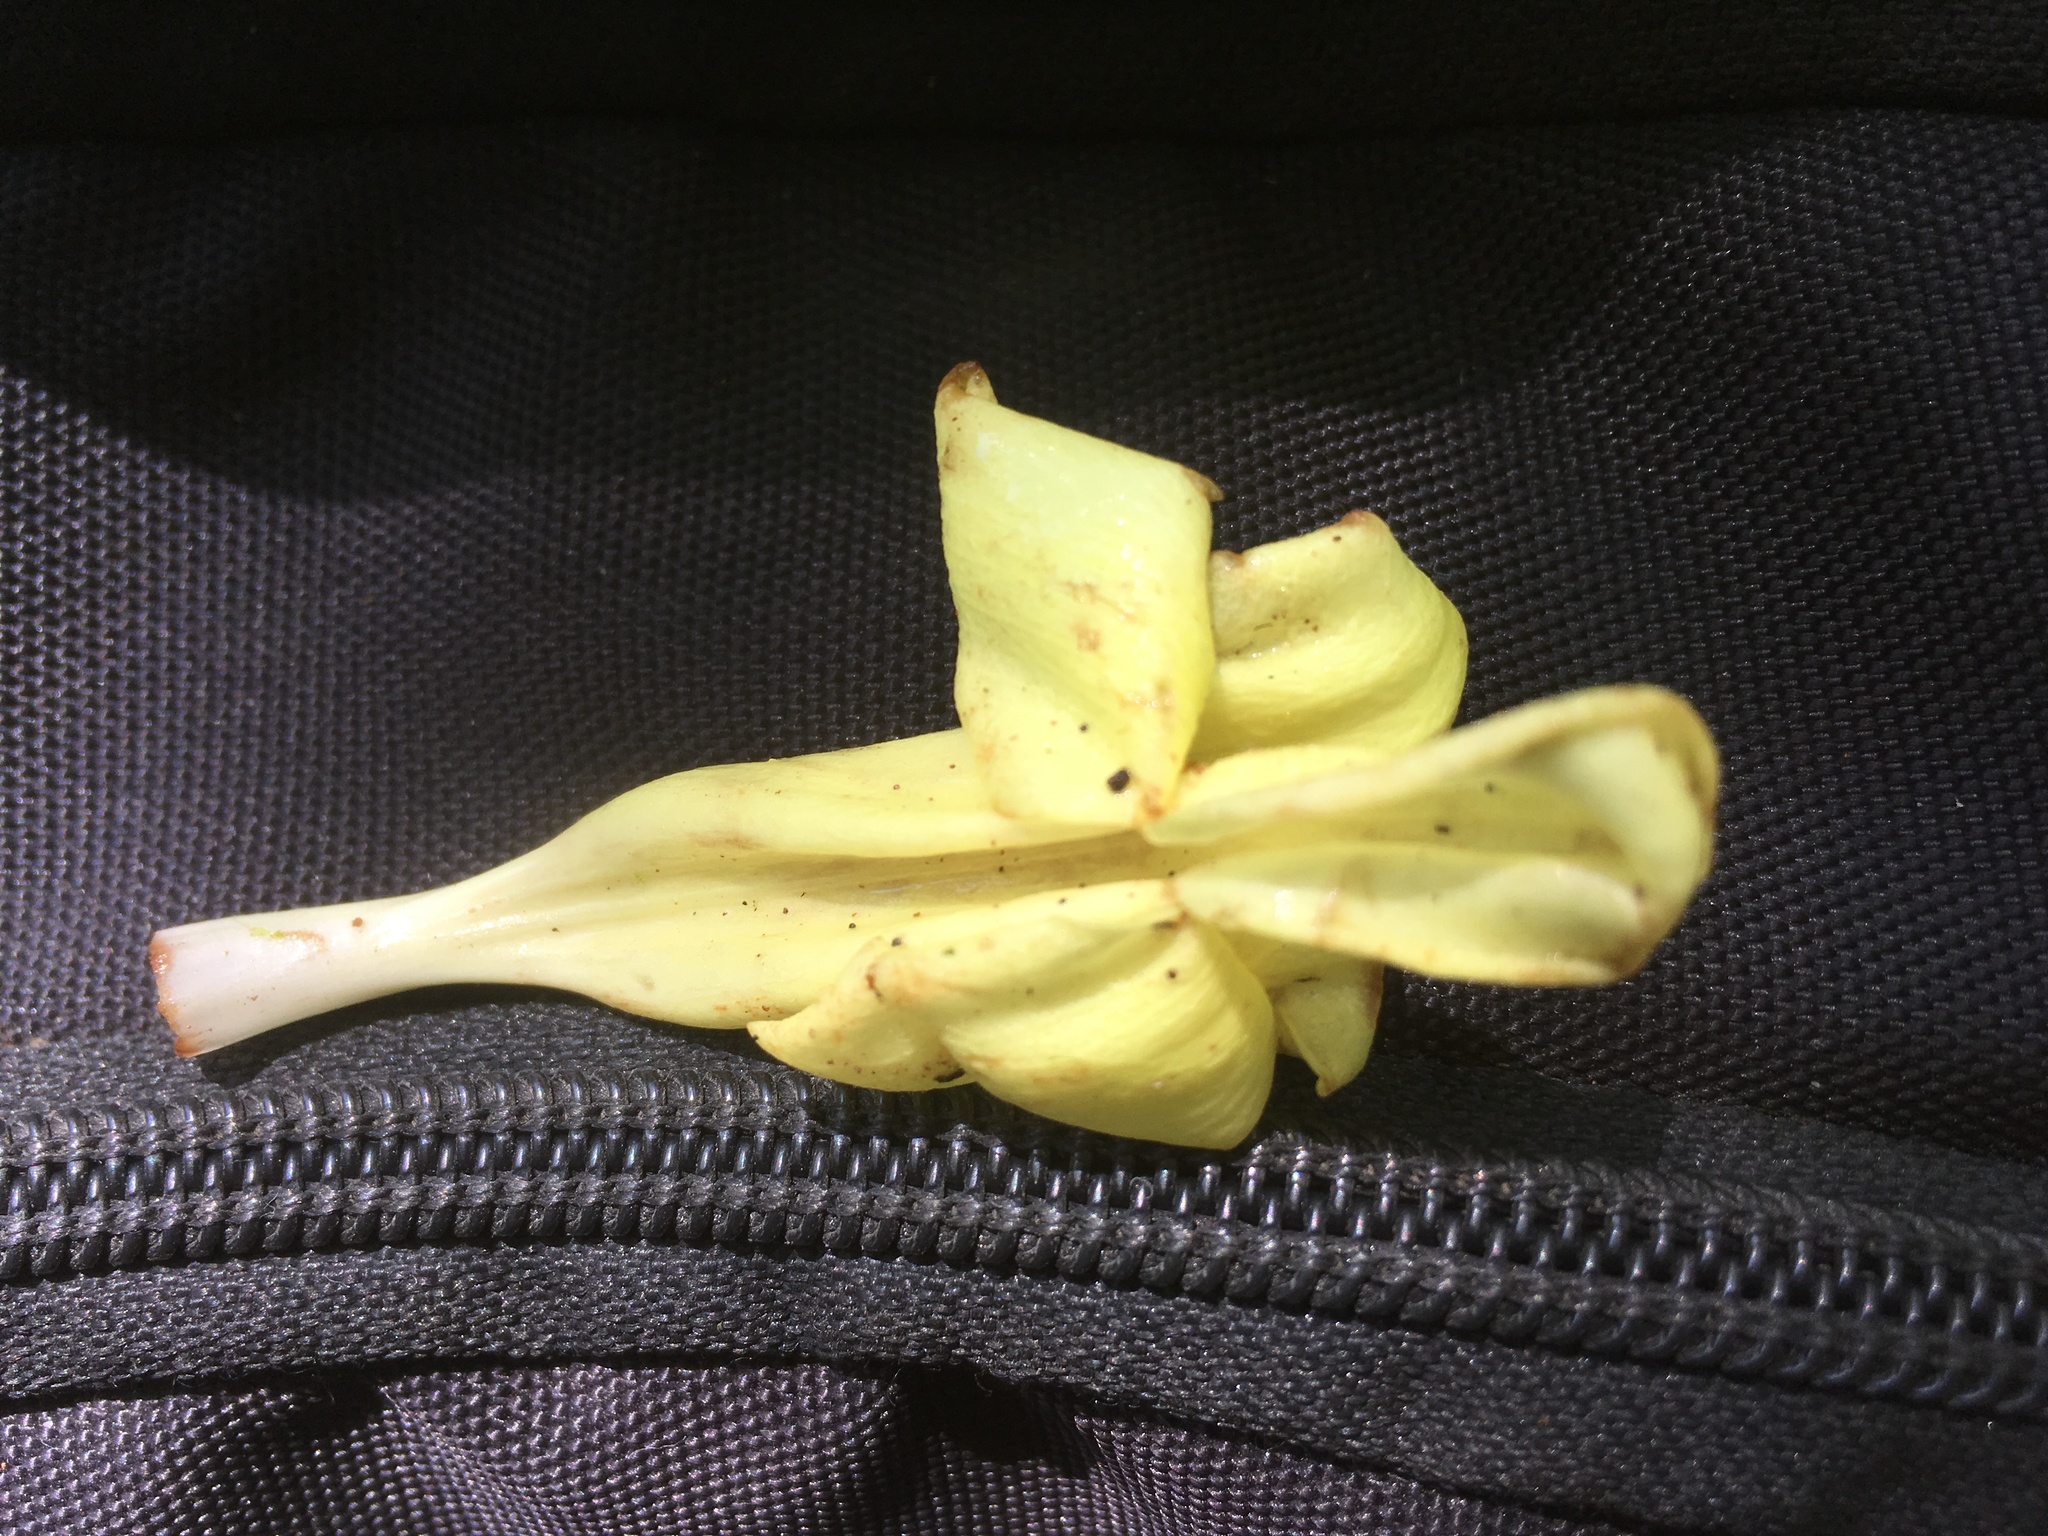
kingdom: Plantae
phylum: Tracheophyta
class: Magnoliopsida
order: Lamiales
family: Acanthaceae
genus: Spathacanthus
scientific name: Spathacanthus magdalenae
